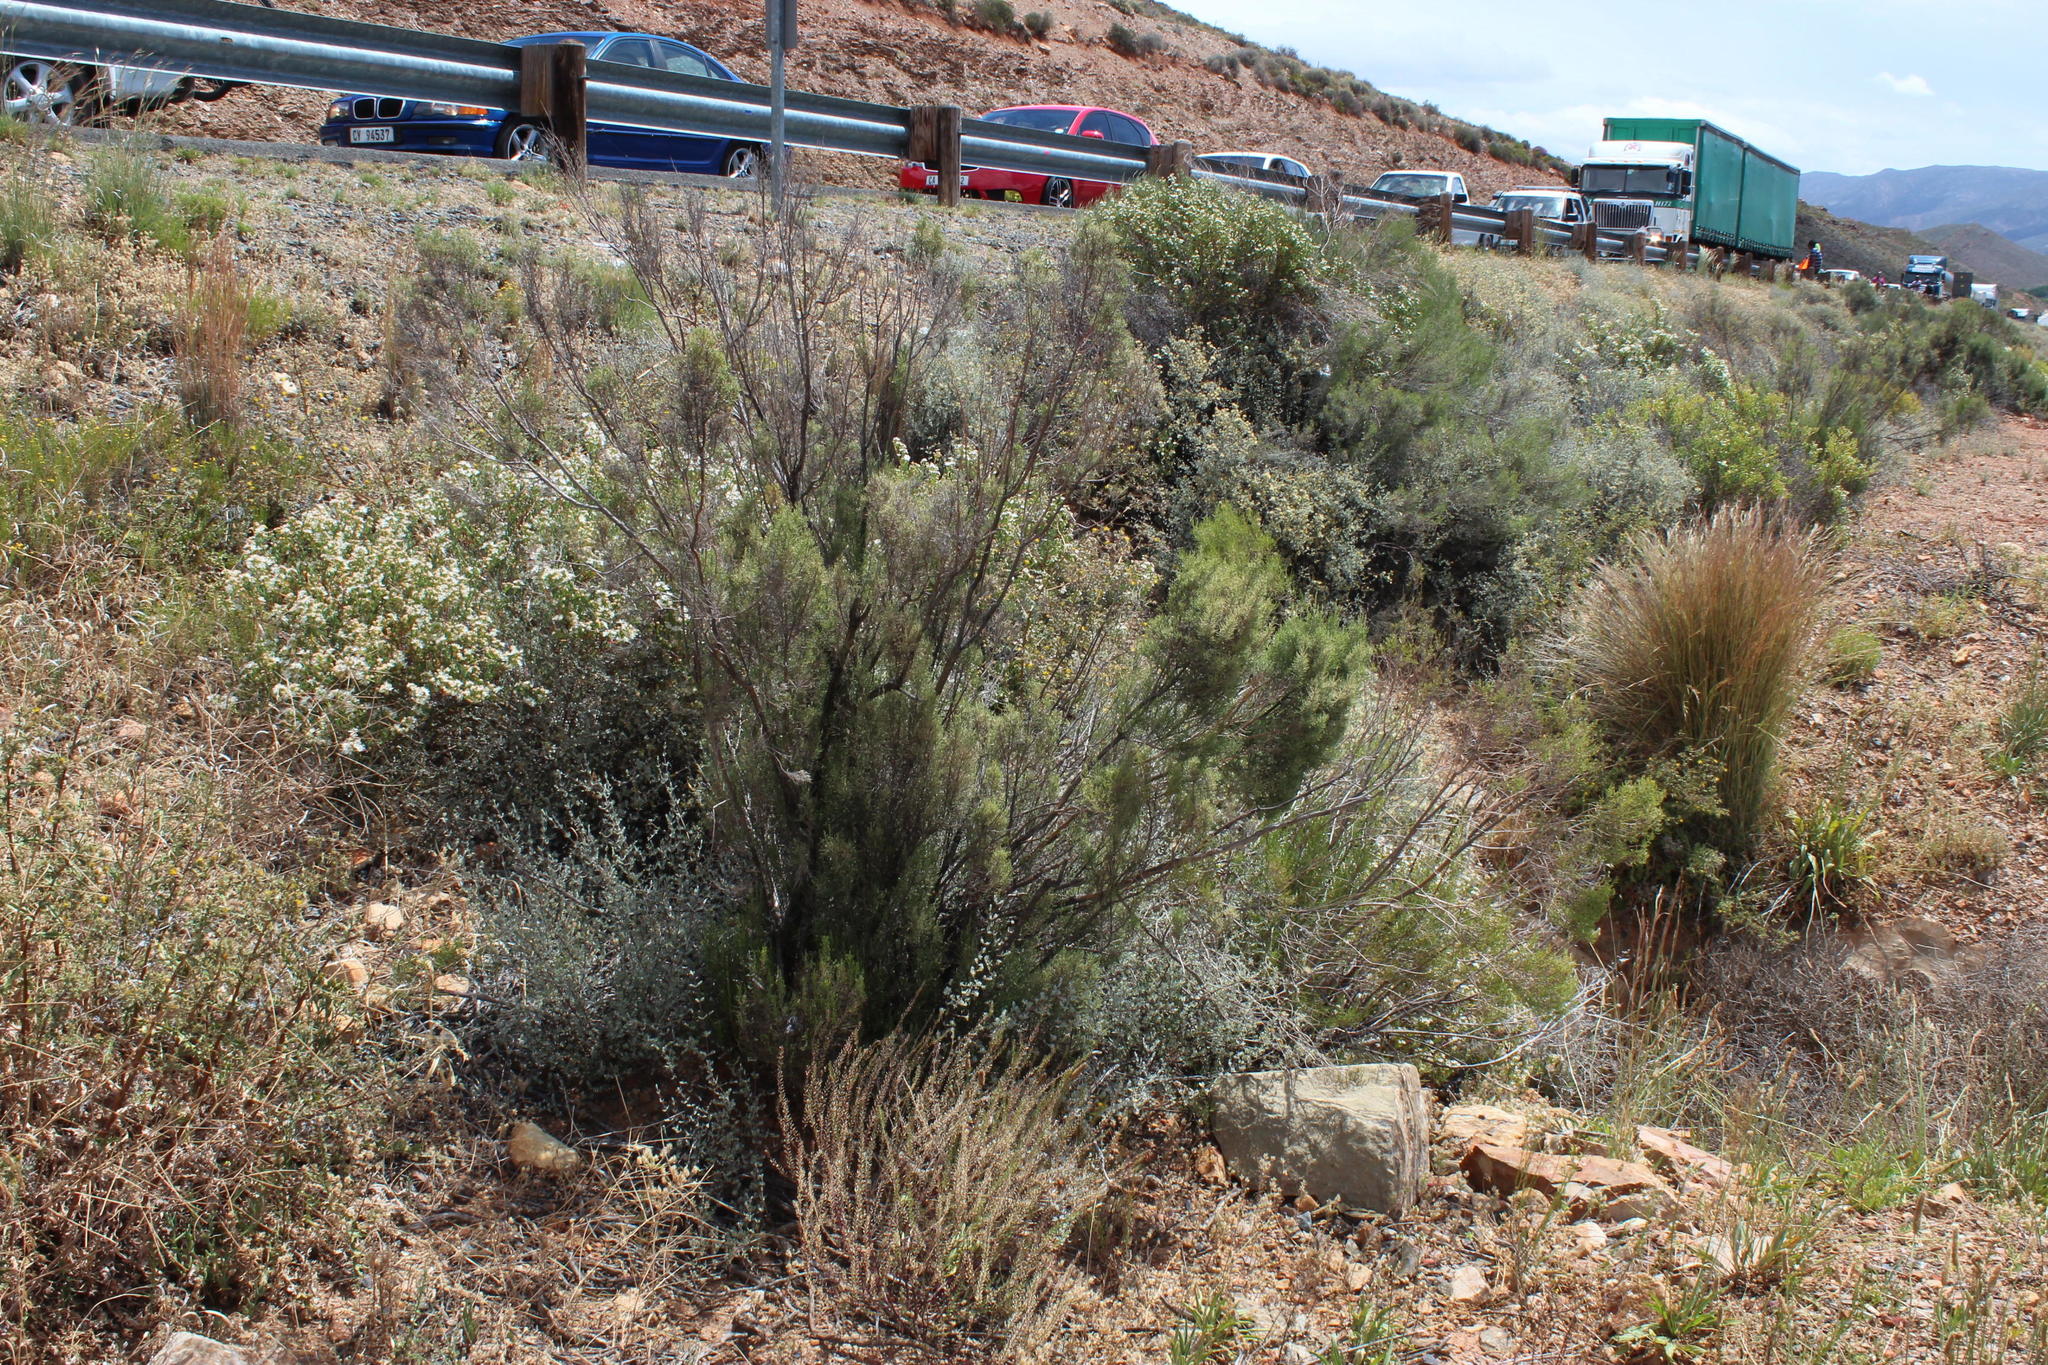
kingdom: Plantae
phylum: Tracheophyta
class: Magnoliopsida
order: Asterales
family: Asteraceae
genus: Dicerothamnus
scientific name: Dicerothamnus rhinocerotis
